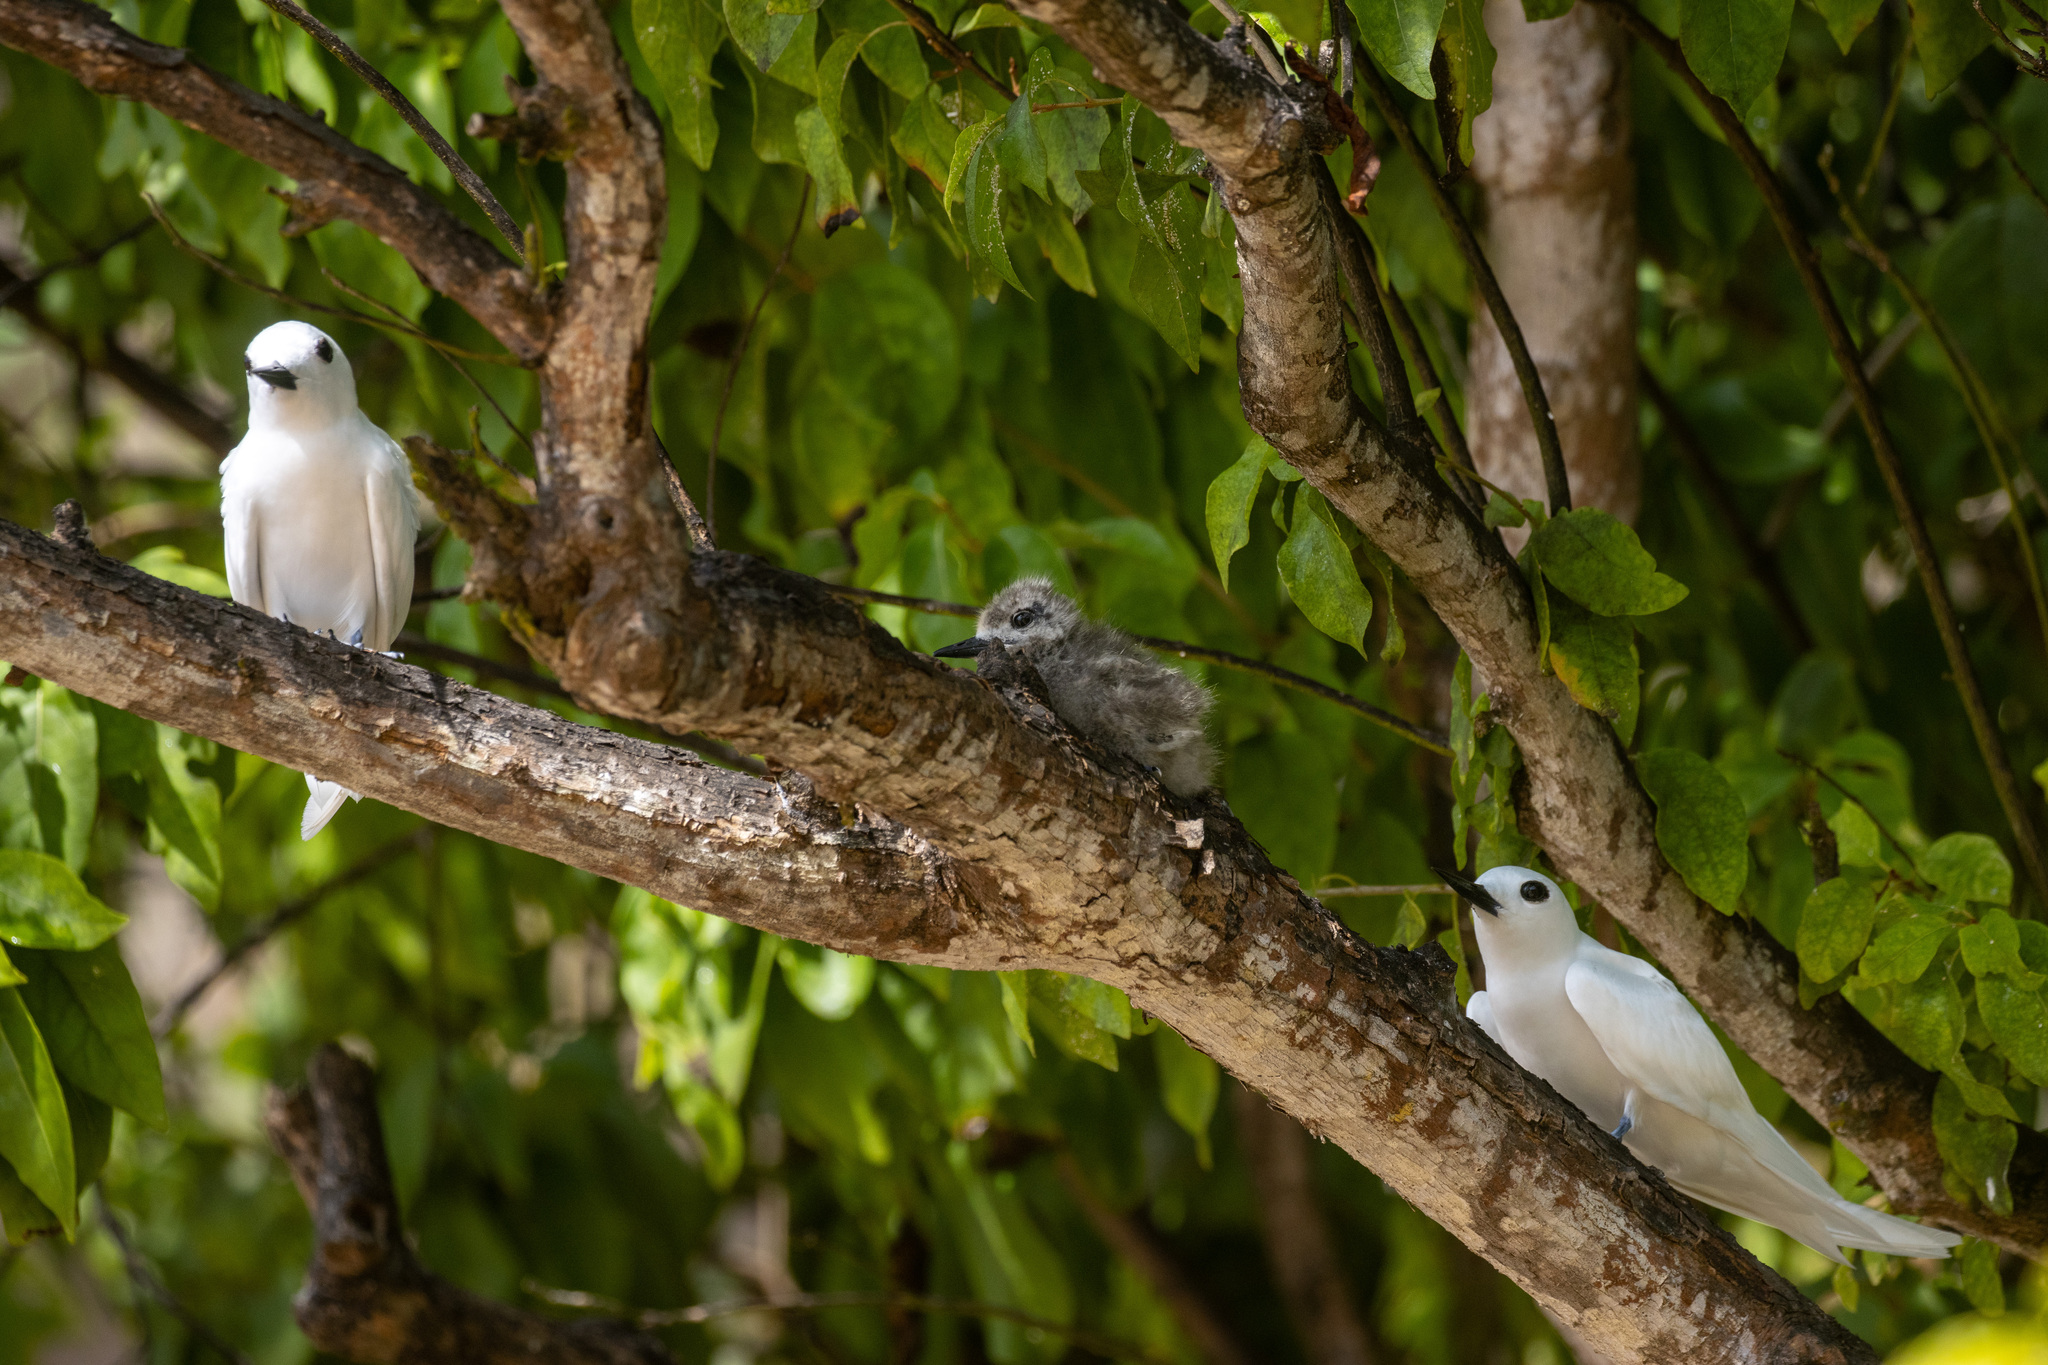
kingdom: Animalia
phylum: Chordata
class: Aves
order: Charadriiformes
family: Laridae
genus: Gygis
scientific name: Gygis alba
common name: White tern
